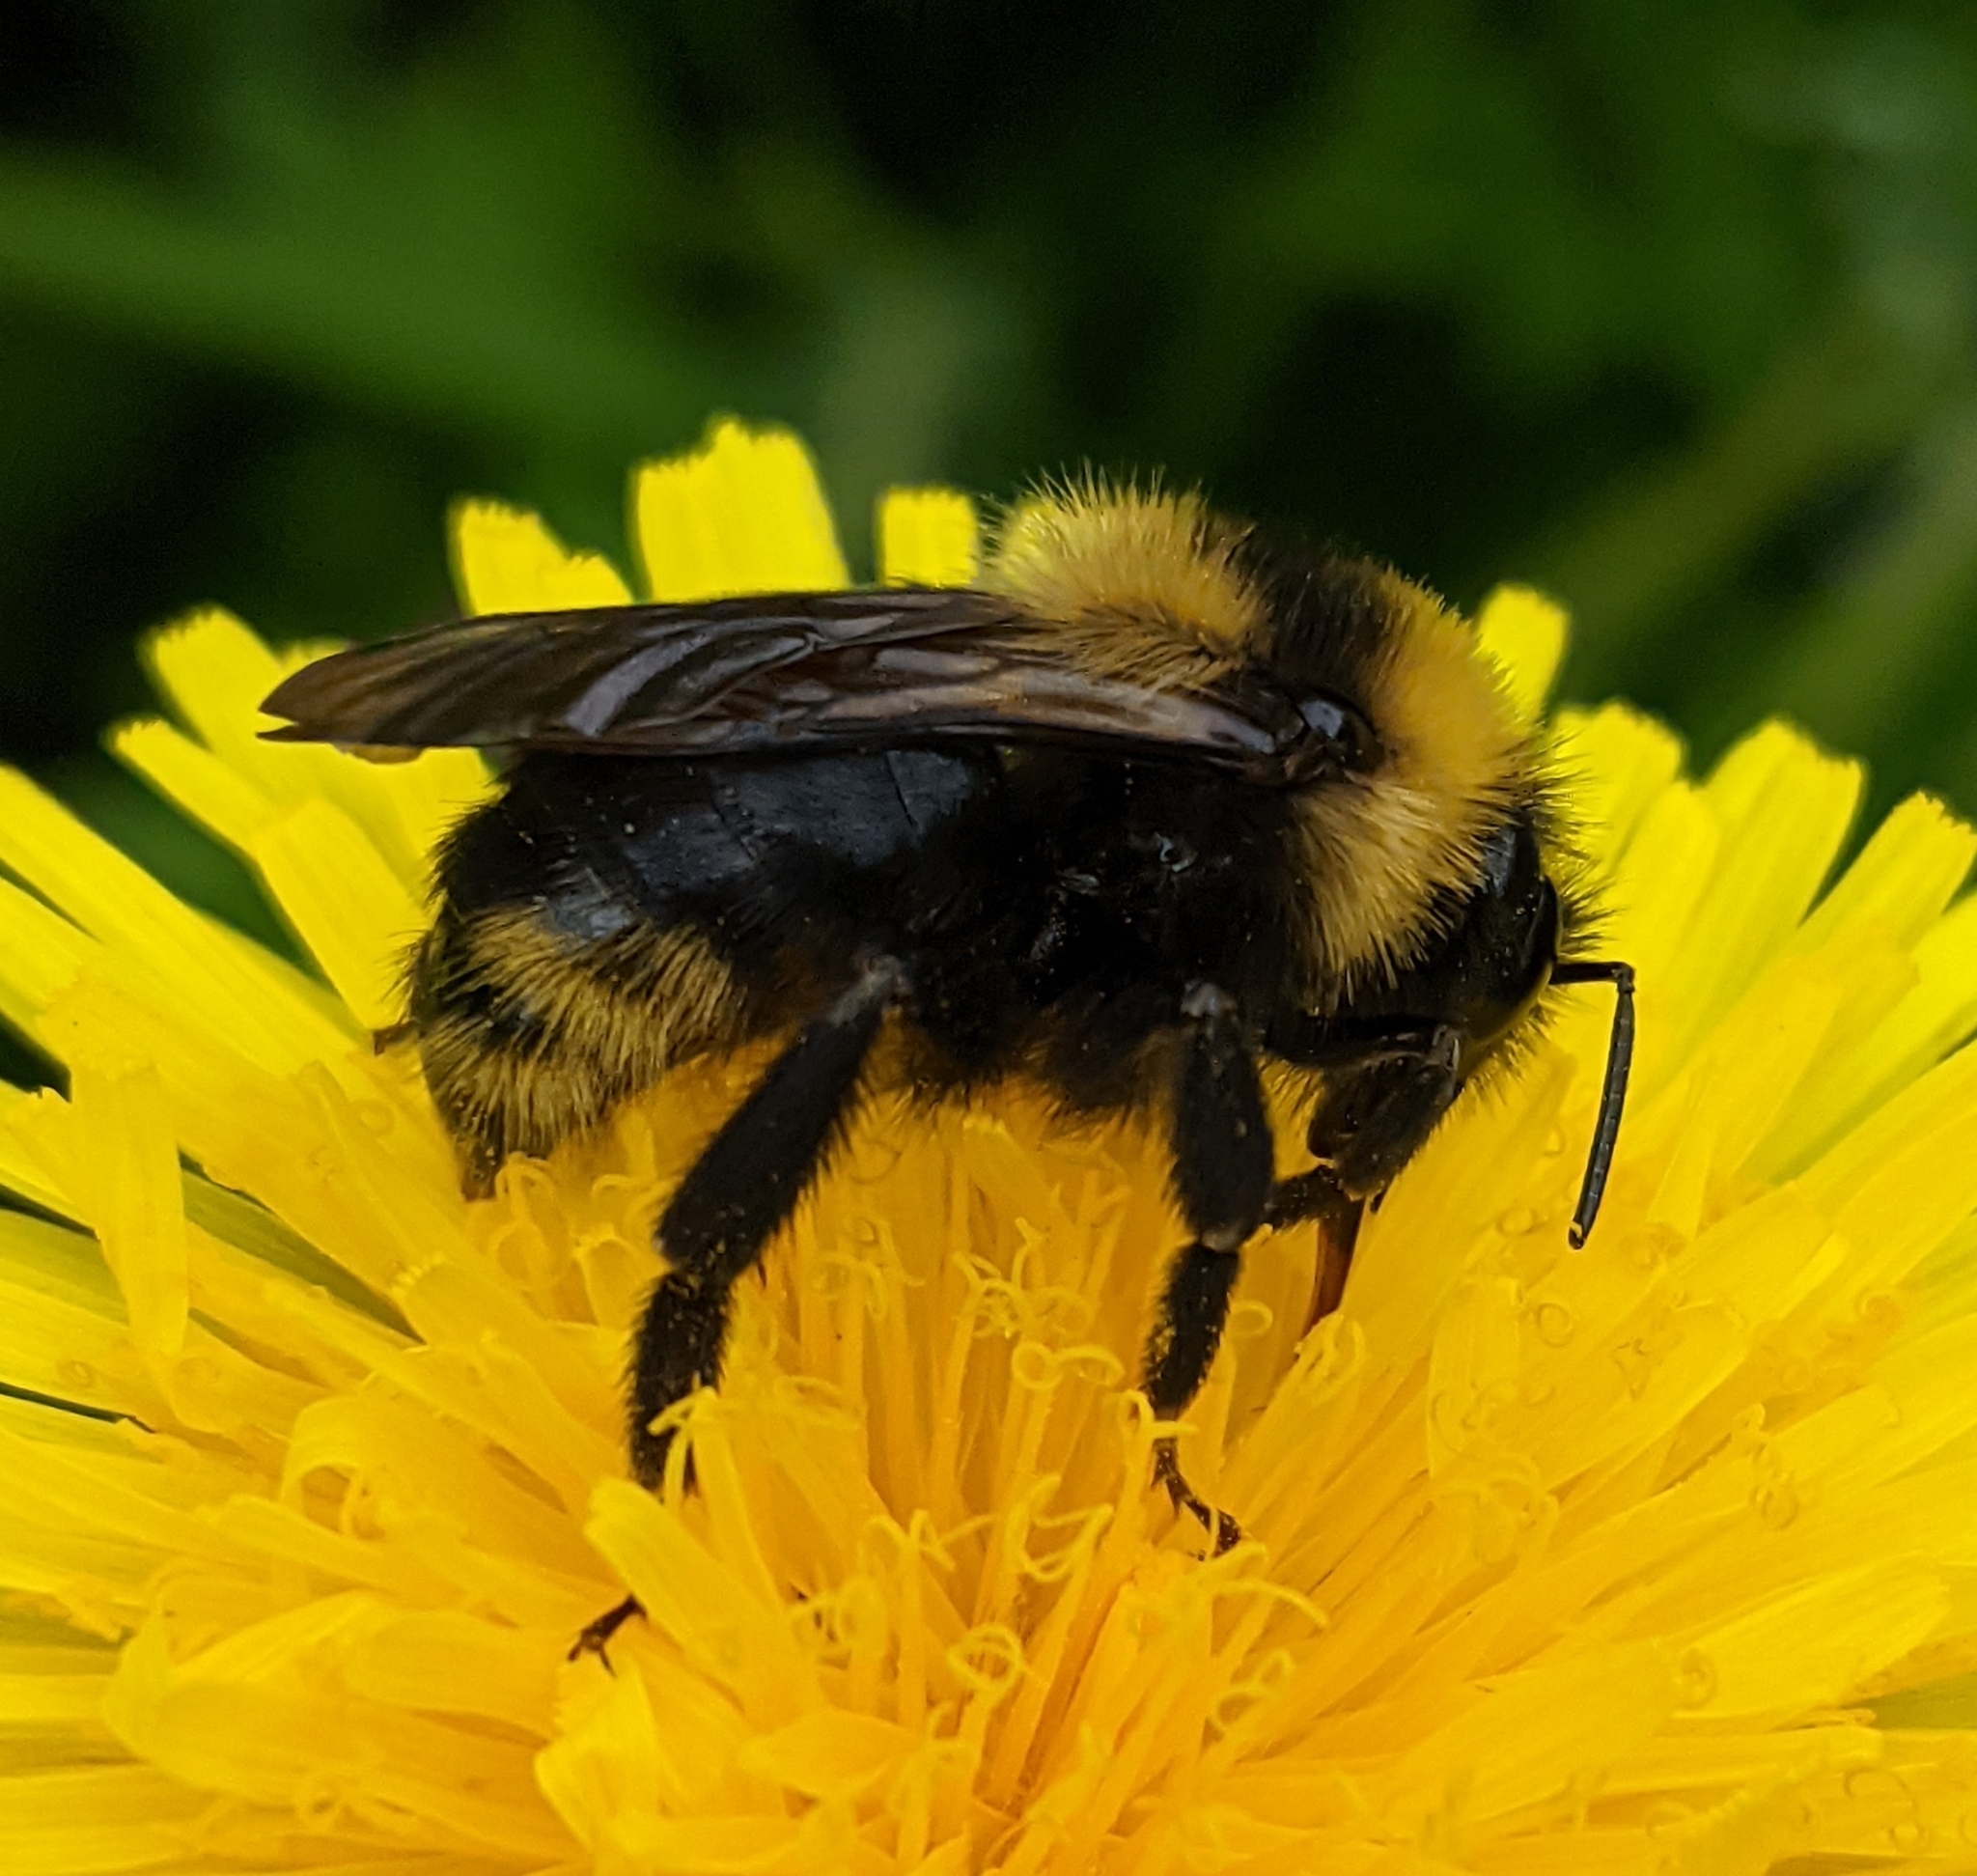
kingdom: Animalia
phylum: Arthropoda
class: Insecta
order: Hymenoptera
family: Apidae
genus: Bombus
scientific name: Bombus campestris
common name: Field cuckoo-bee
